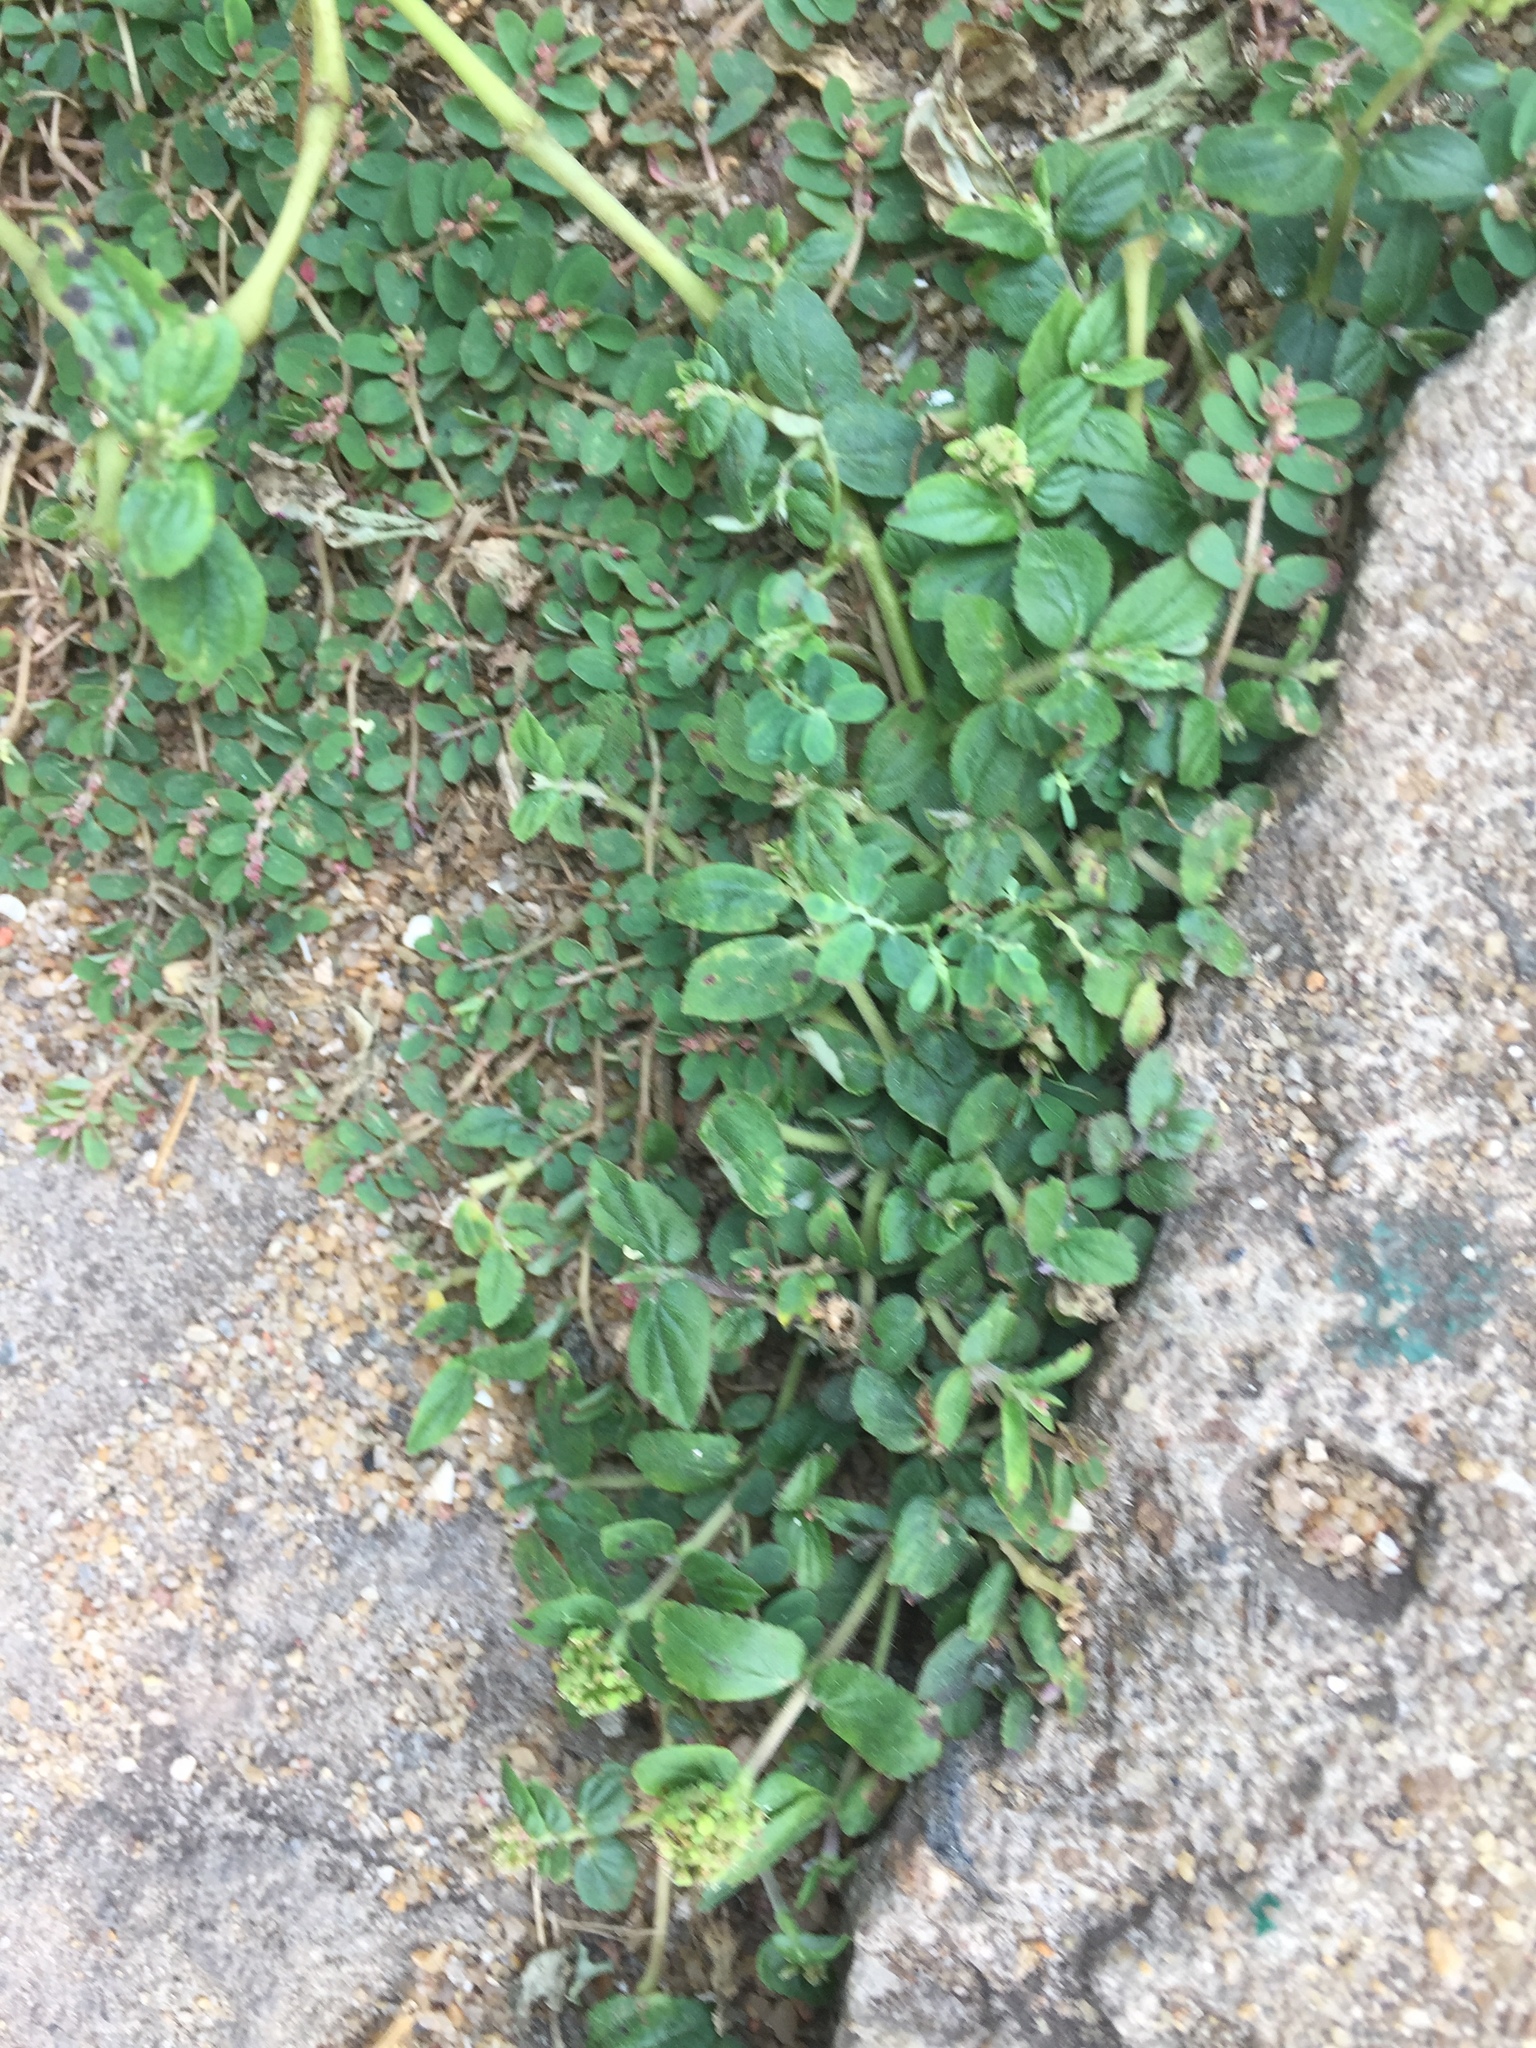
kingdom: Plantae
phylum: Tracheophyta
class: Magnoliopsida
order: Malpighiales
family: Euphorbiaceae
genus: Euphorbia
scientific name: Euphorbia ophthalmica
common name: Florida hammock sandmat
